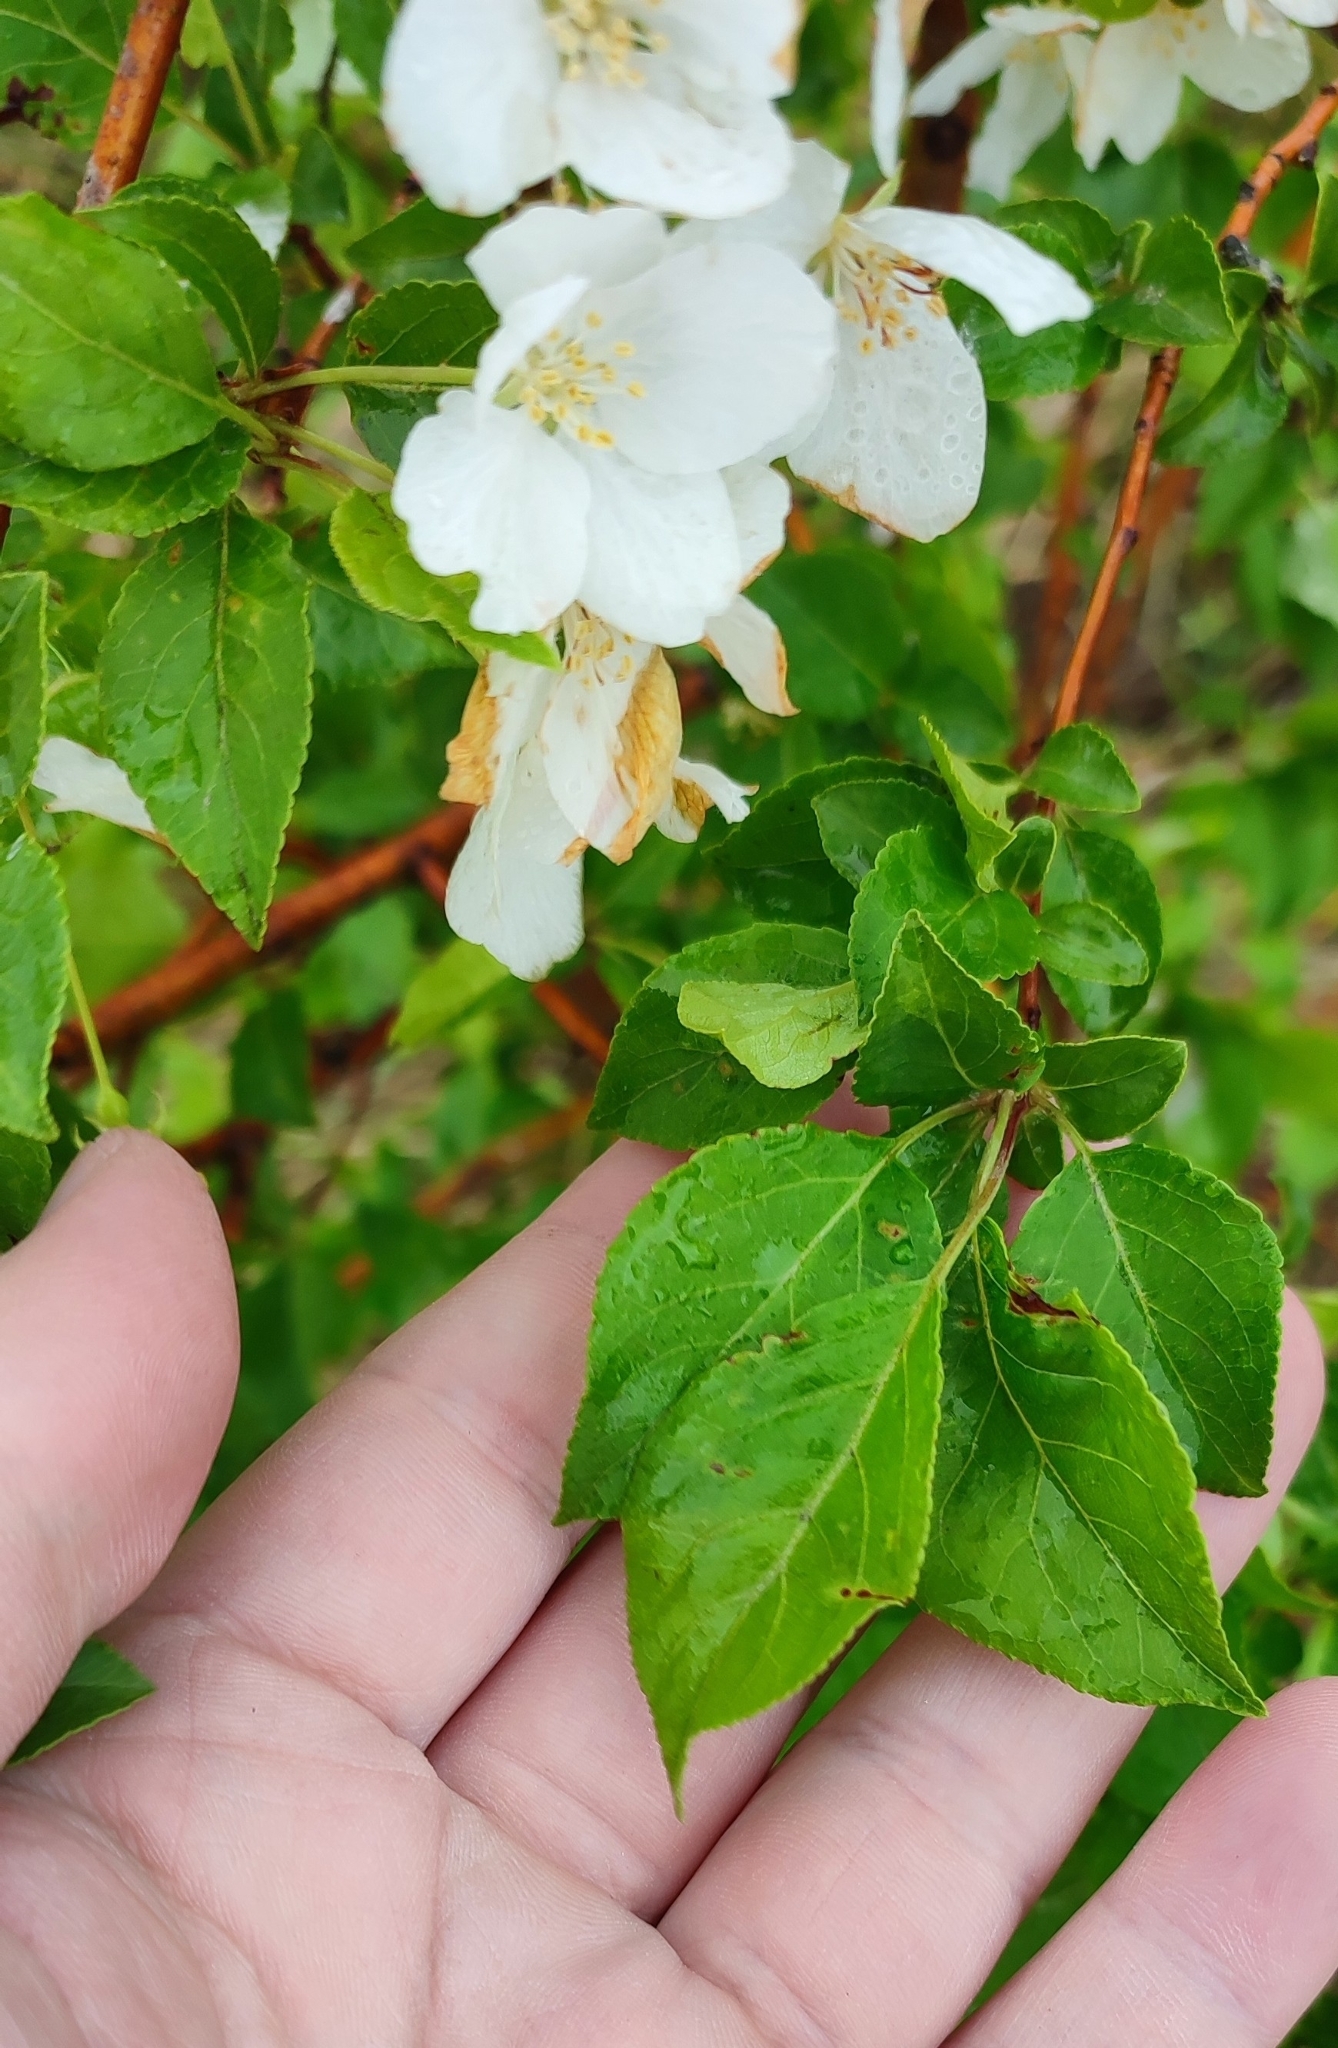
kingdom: Plantae
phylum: Tracheophyta
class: Magnoliopsida
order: Rosales
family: Rosaceae
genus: Malus
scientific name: Malus baccata
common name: Siberian crab
